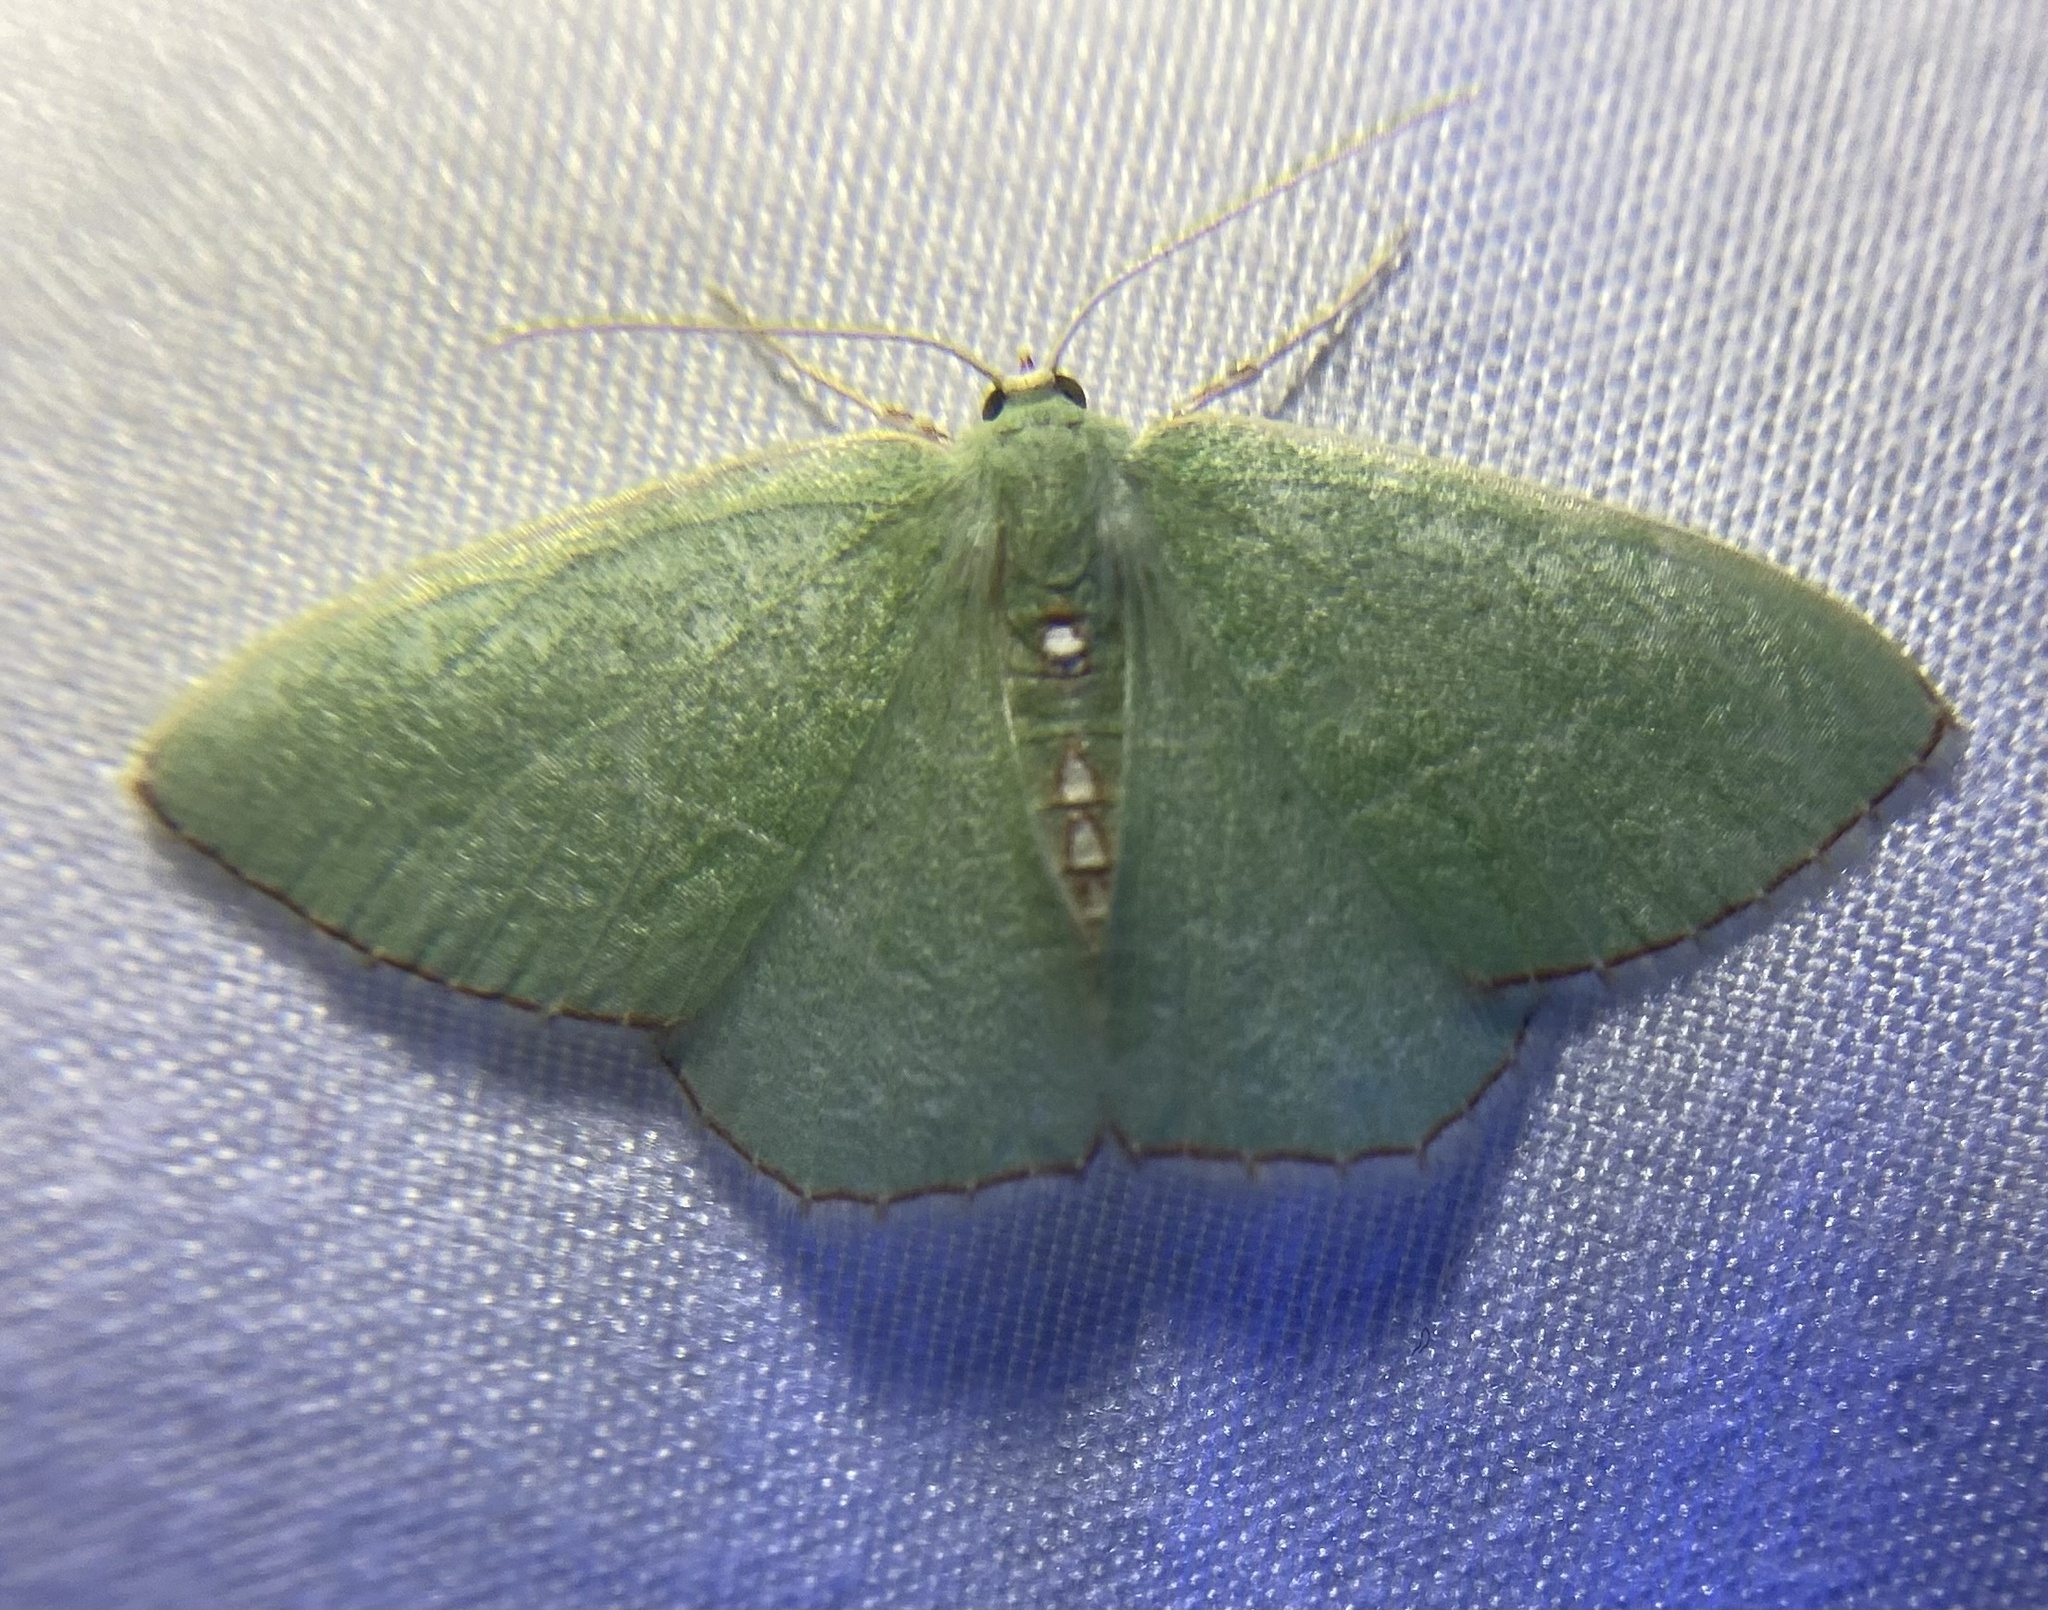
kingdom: Animalia
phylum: Arthropoda
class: Insecta
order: Lepidoptera
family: Geometridae
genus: Nemoria
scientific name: Nemoria lixaria
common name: Red-bordered emerald
